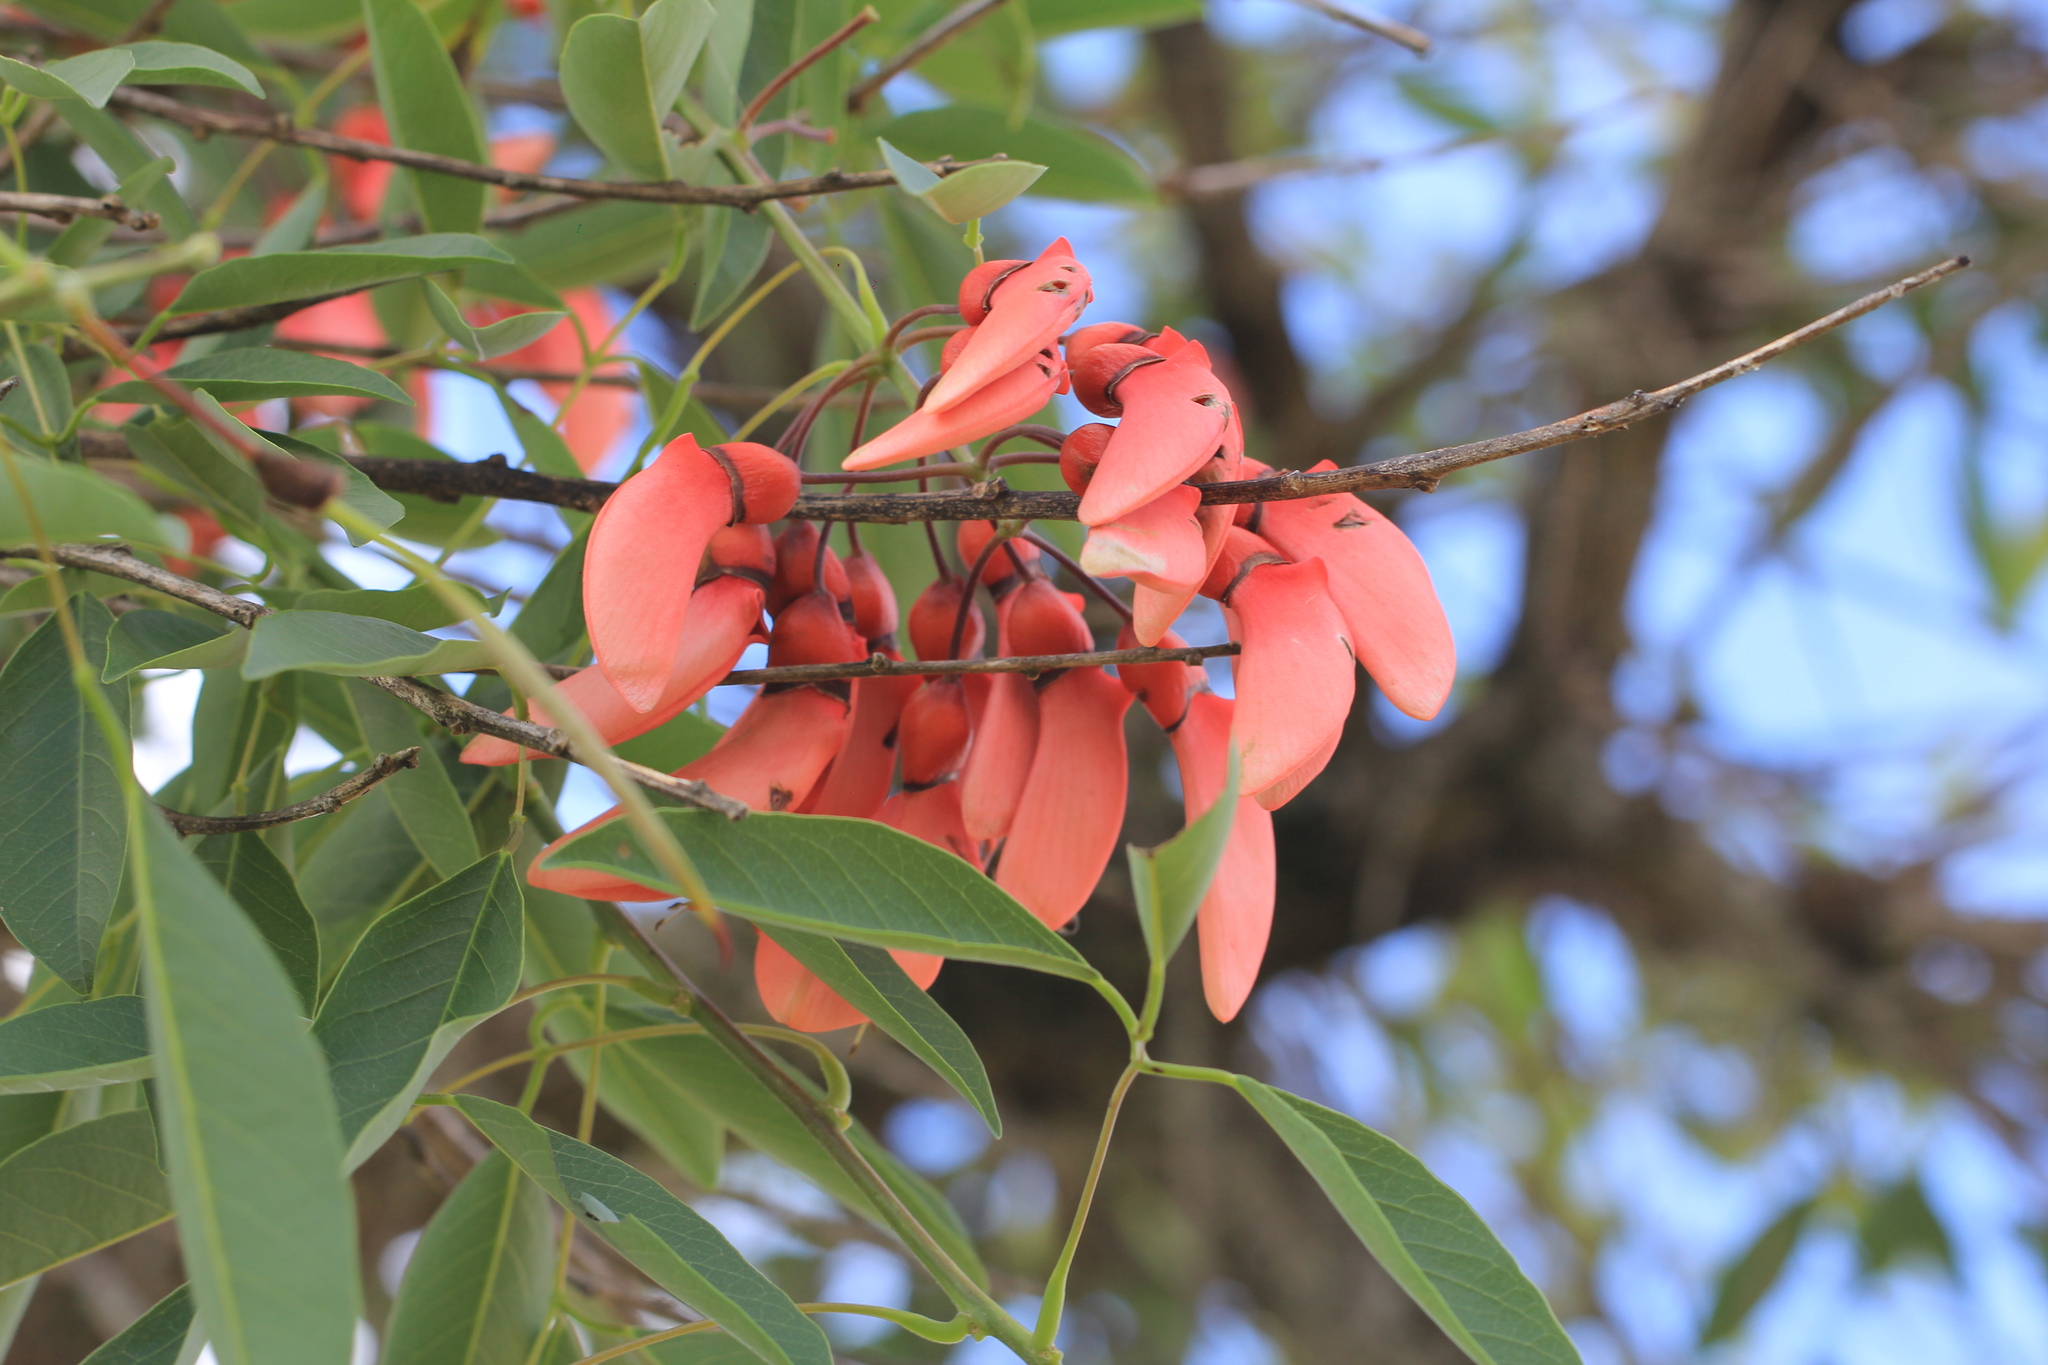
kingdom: Plantae
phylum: Tracheophyta
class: Magnoliopsida
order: Fabales
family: Fabaceae
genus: Erythrina
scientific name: Erythrina crista-galli
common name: Cockspur coral tree
